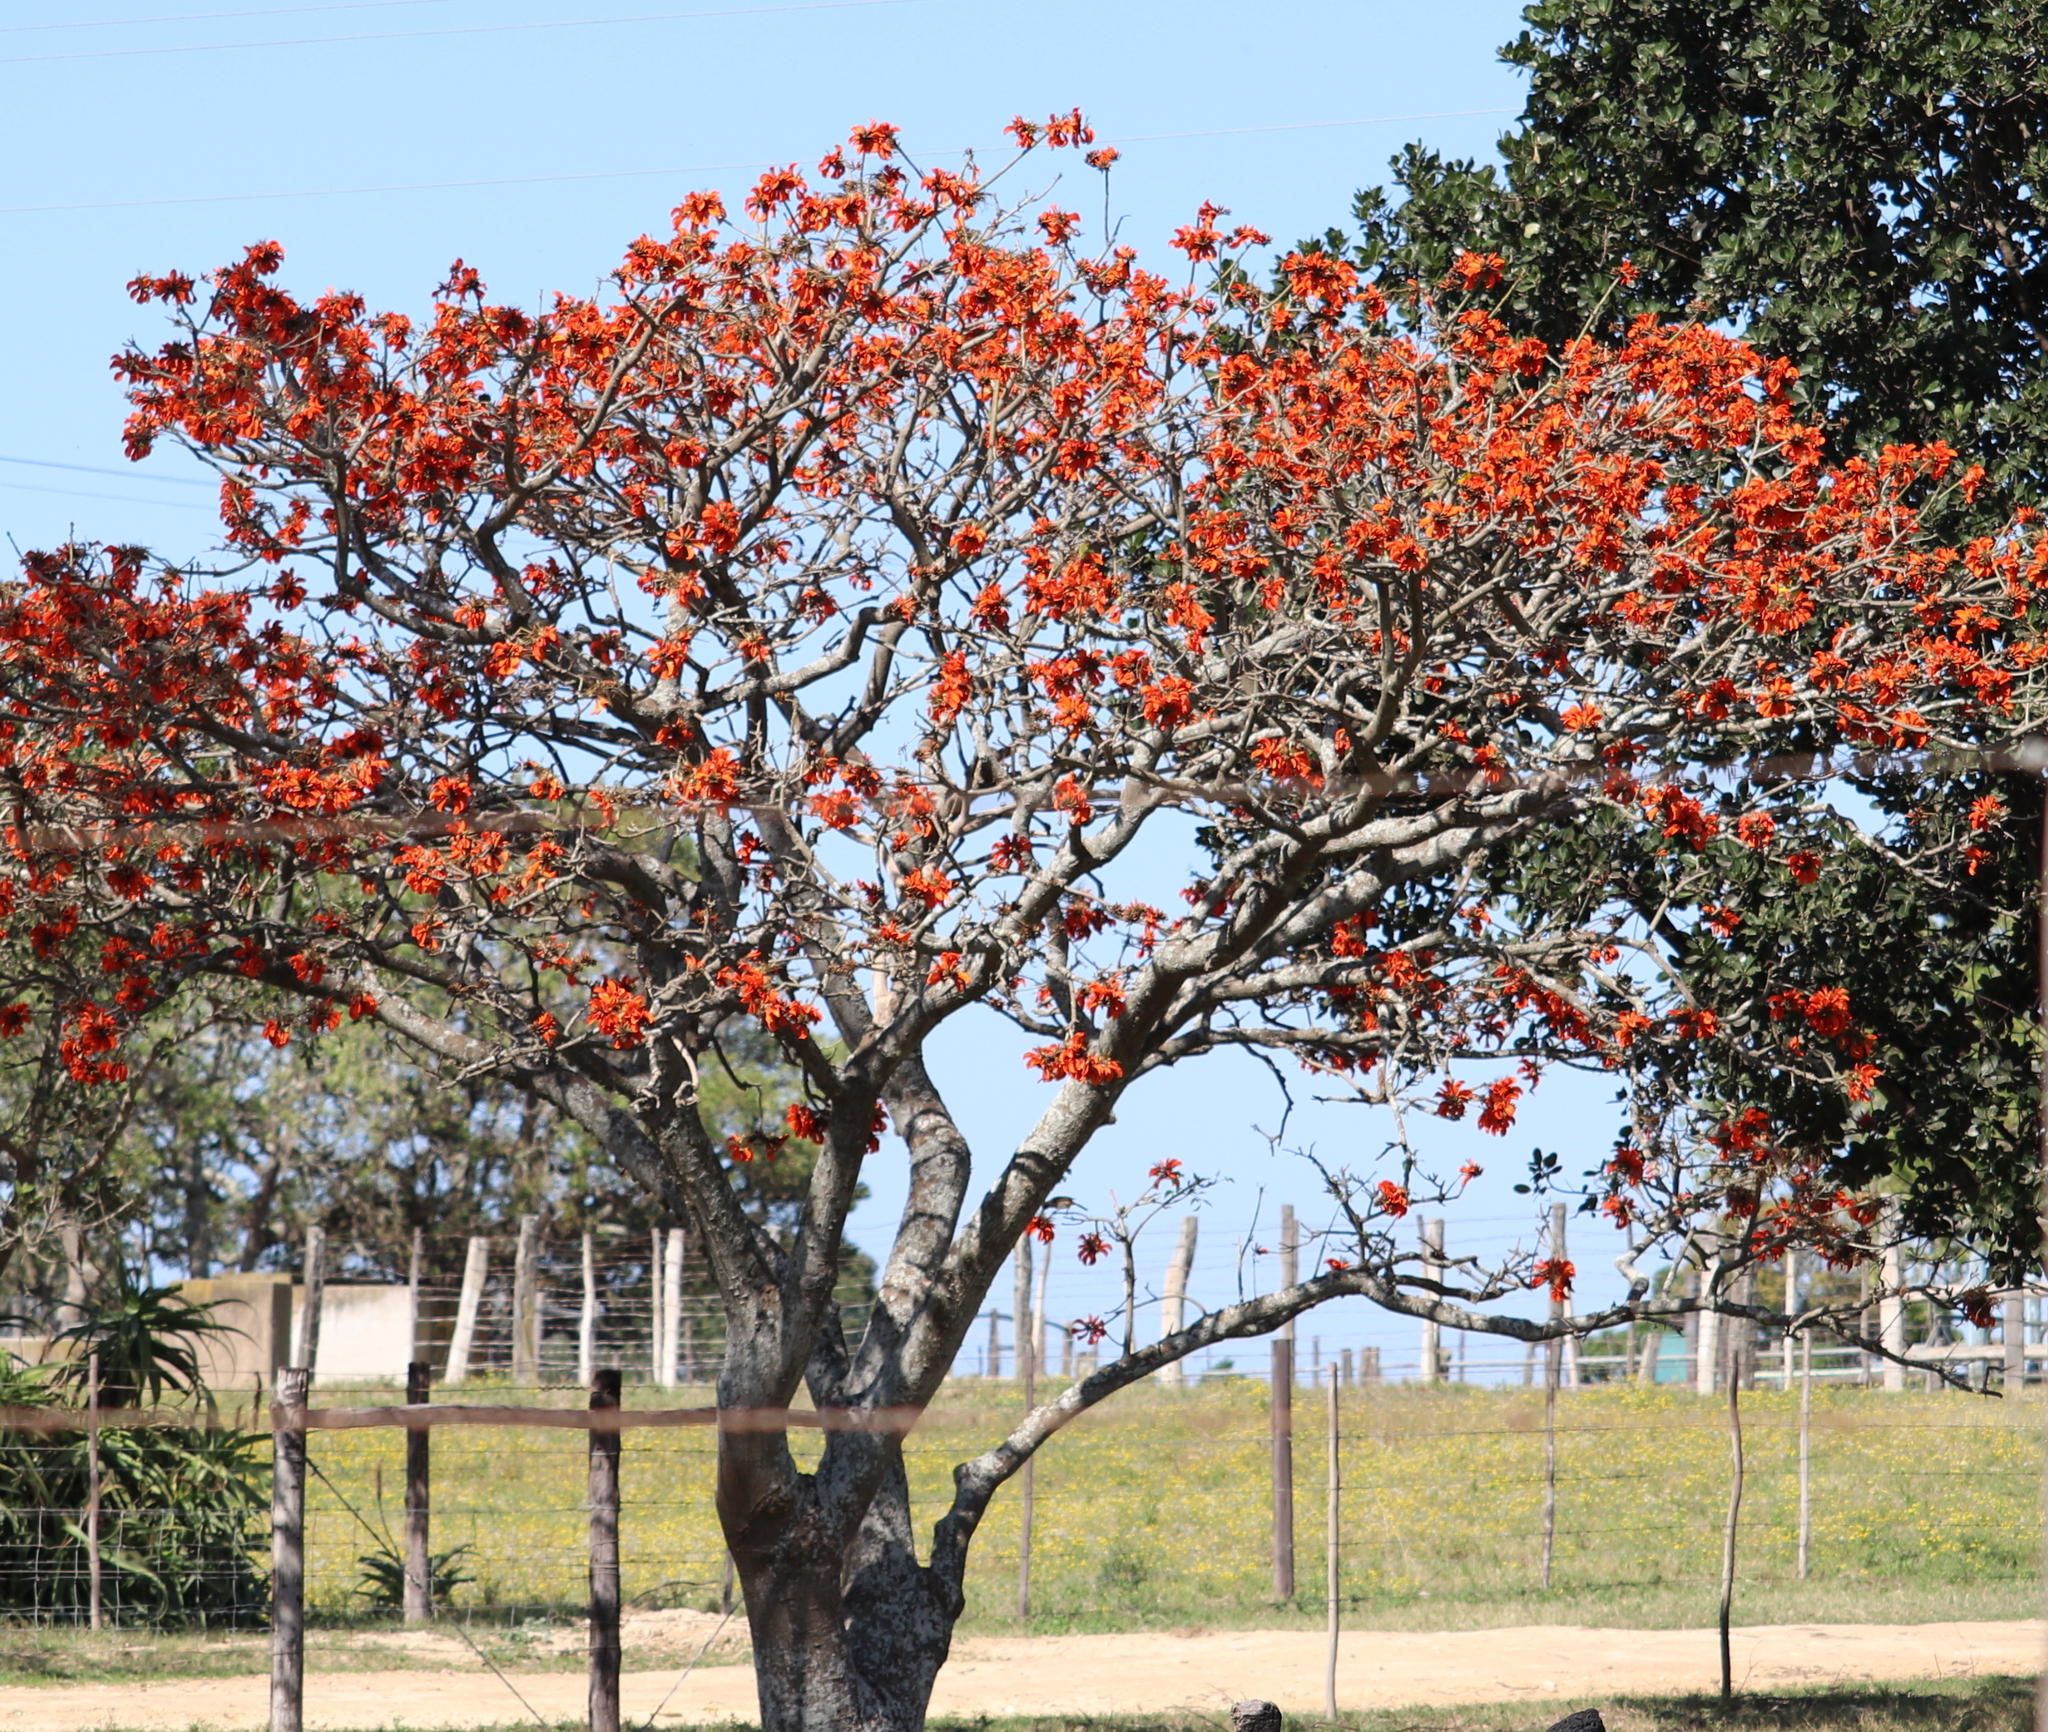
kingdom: Plantae
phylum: Tracheophyta
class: Magnoliopsida
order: Fabales
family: Fabaceae
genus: Erythrina
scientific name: Erythrina caffra
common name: Coast coral tree
